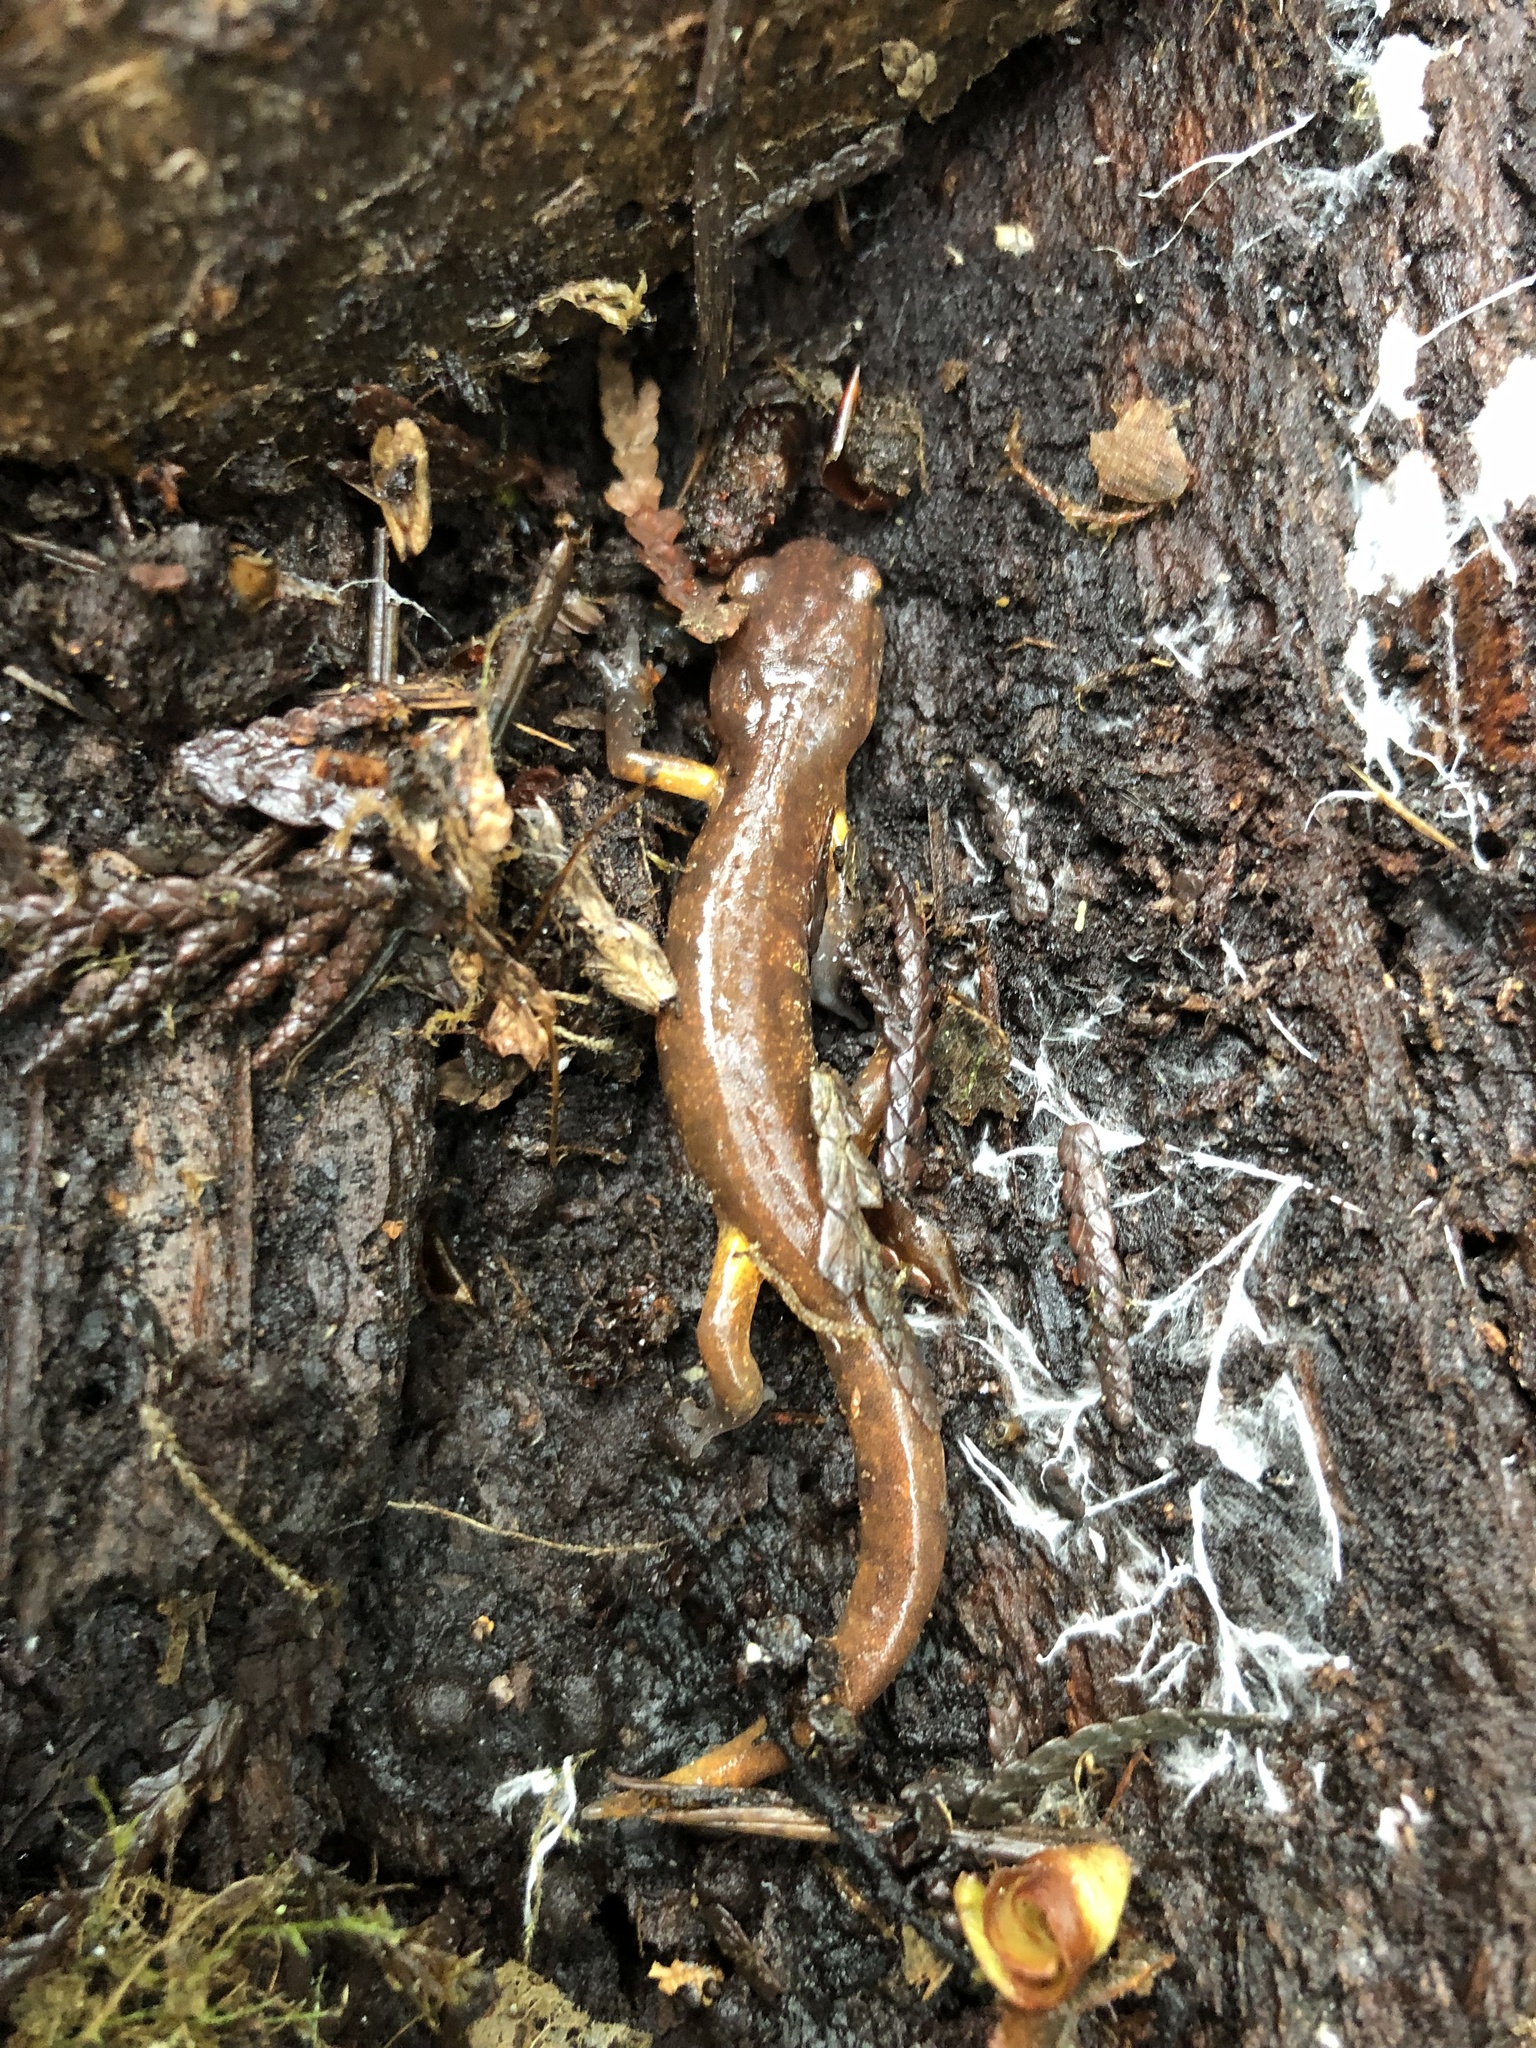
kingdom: Animalia
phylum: Chordata
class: Amphibia
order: Caudata
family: Plethodontidae
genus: Ensatina
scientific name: Ensatina eschscholtzii
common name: Ensatina
